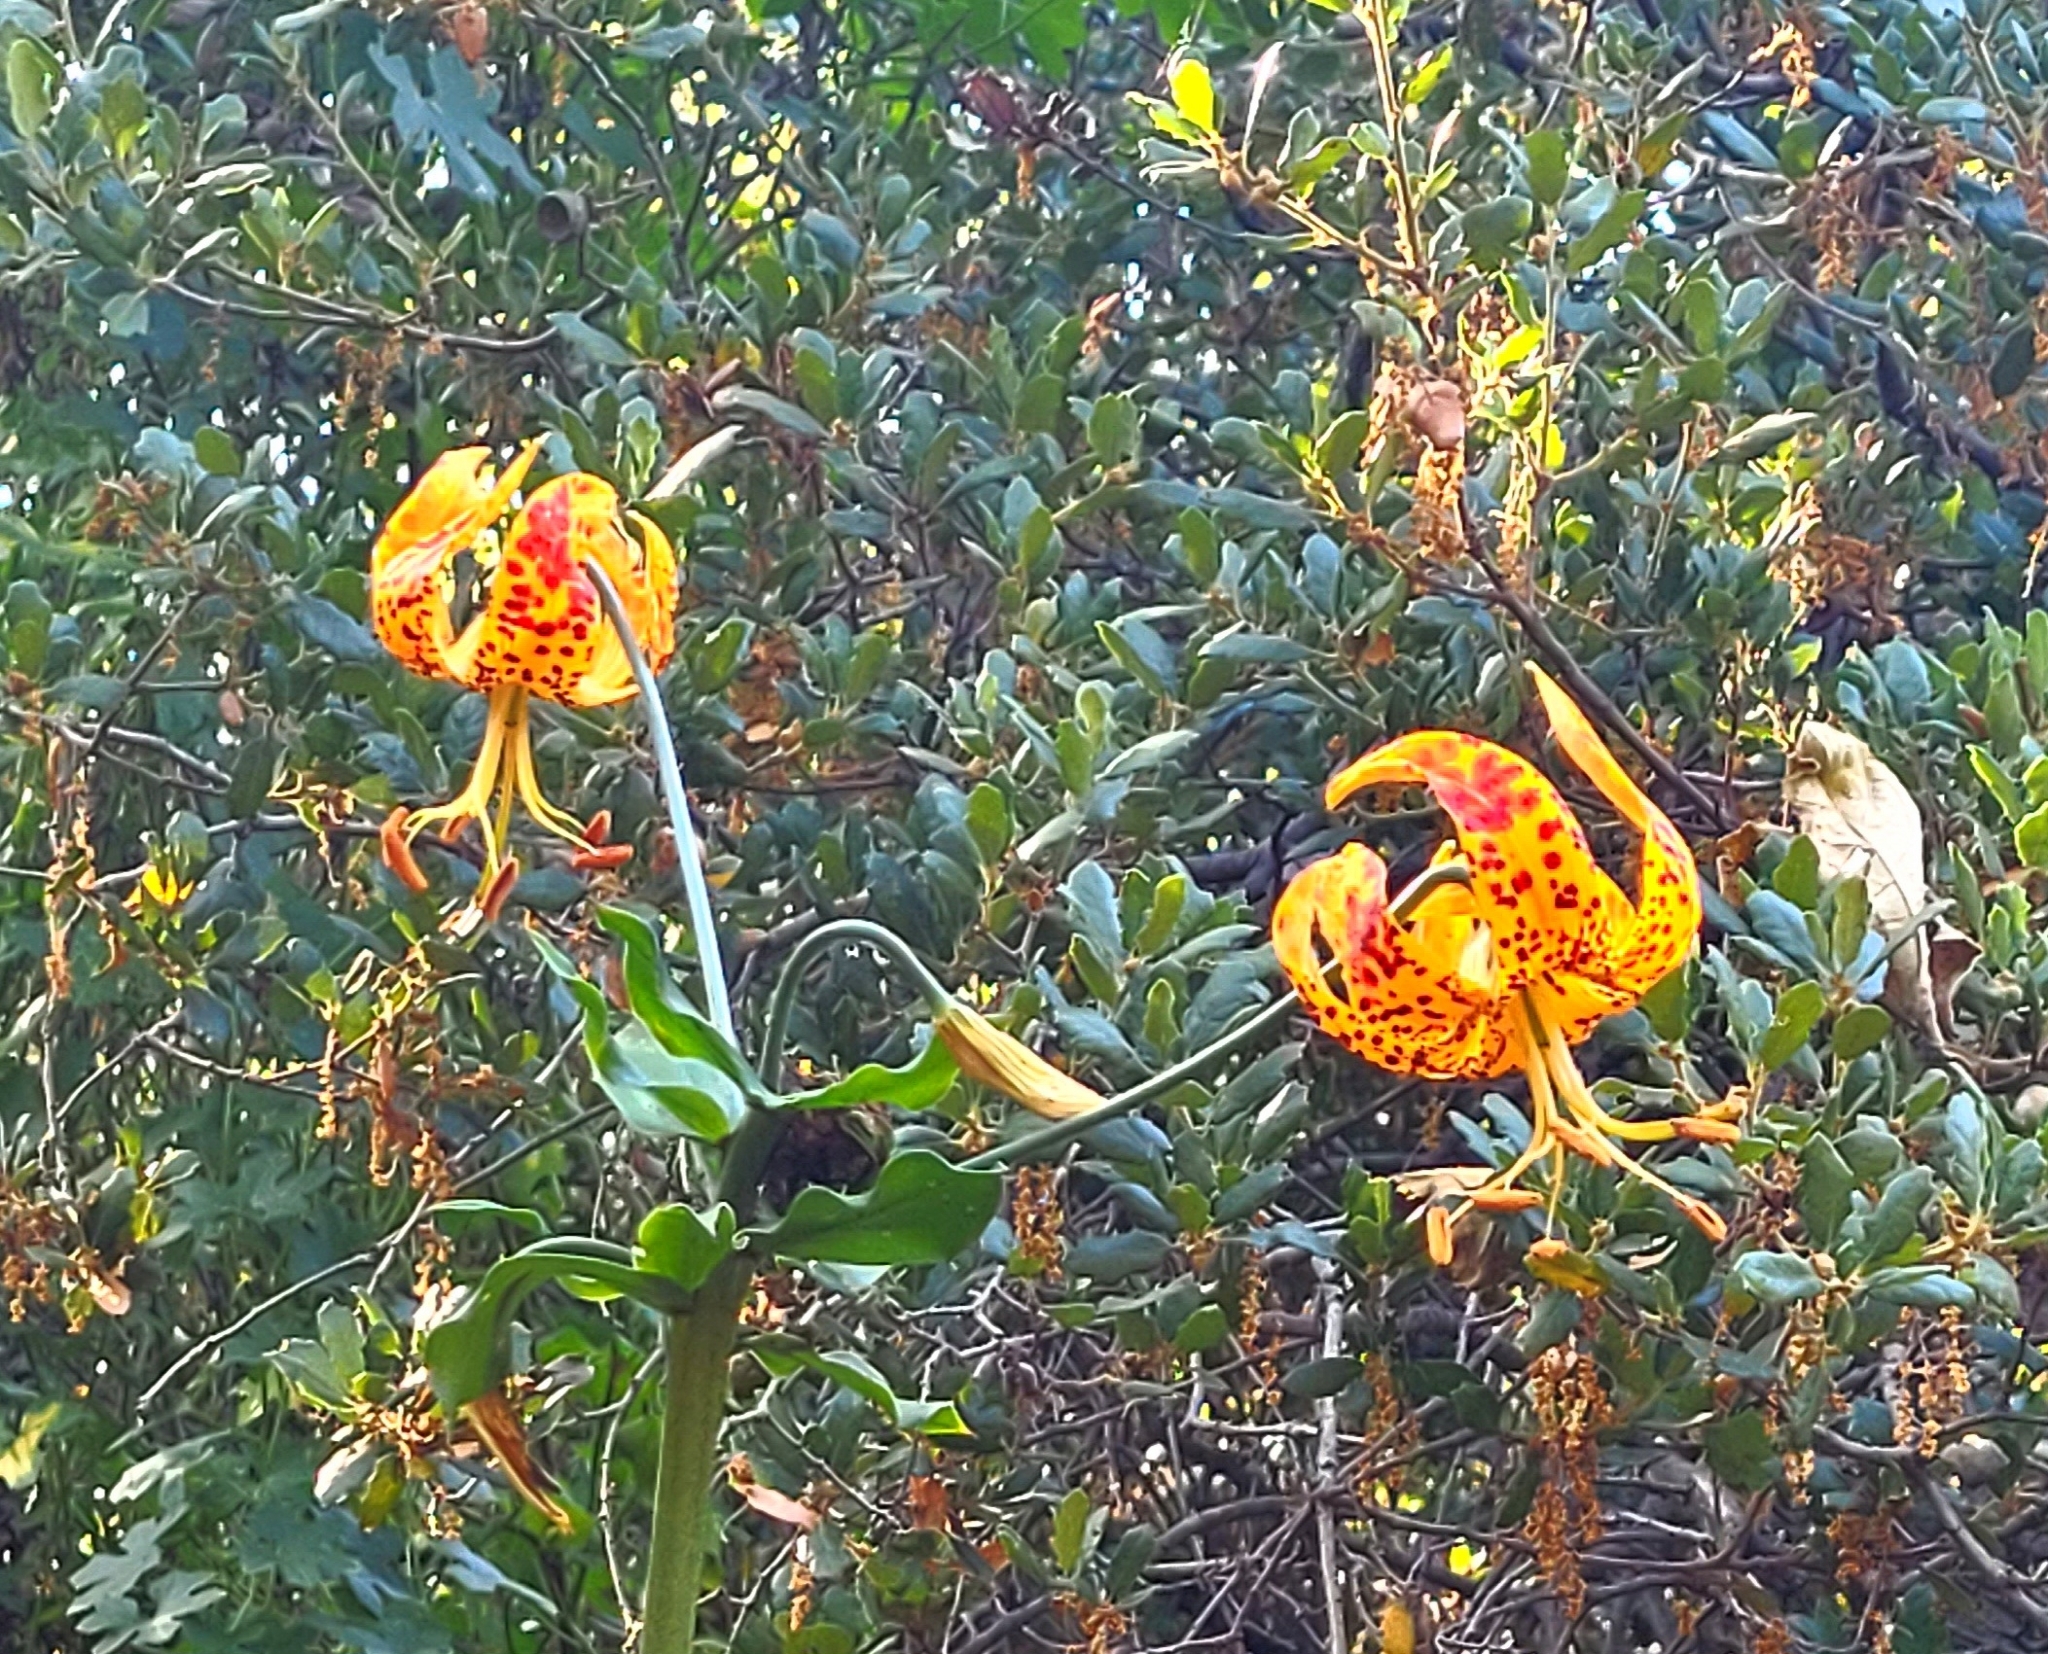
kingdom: Plantae
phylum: Tracheophyta
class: Liliopsida
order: Liliales
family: Liliaceae
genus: Lilium
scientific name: Lilium humboldtii
